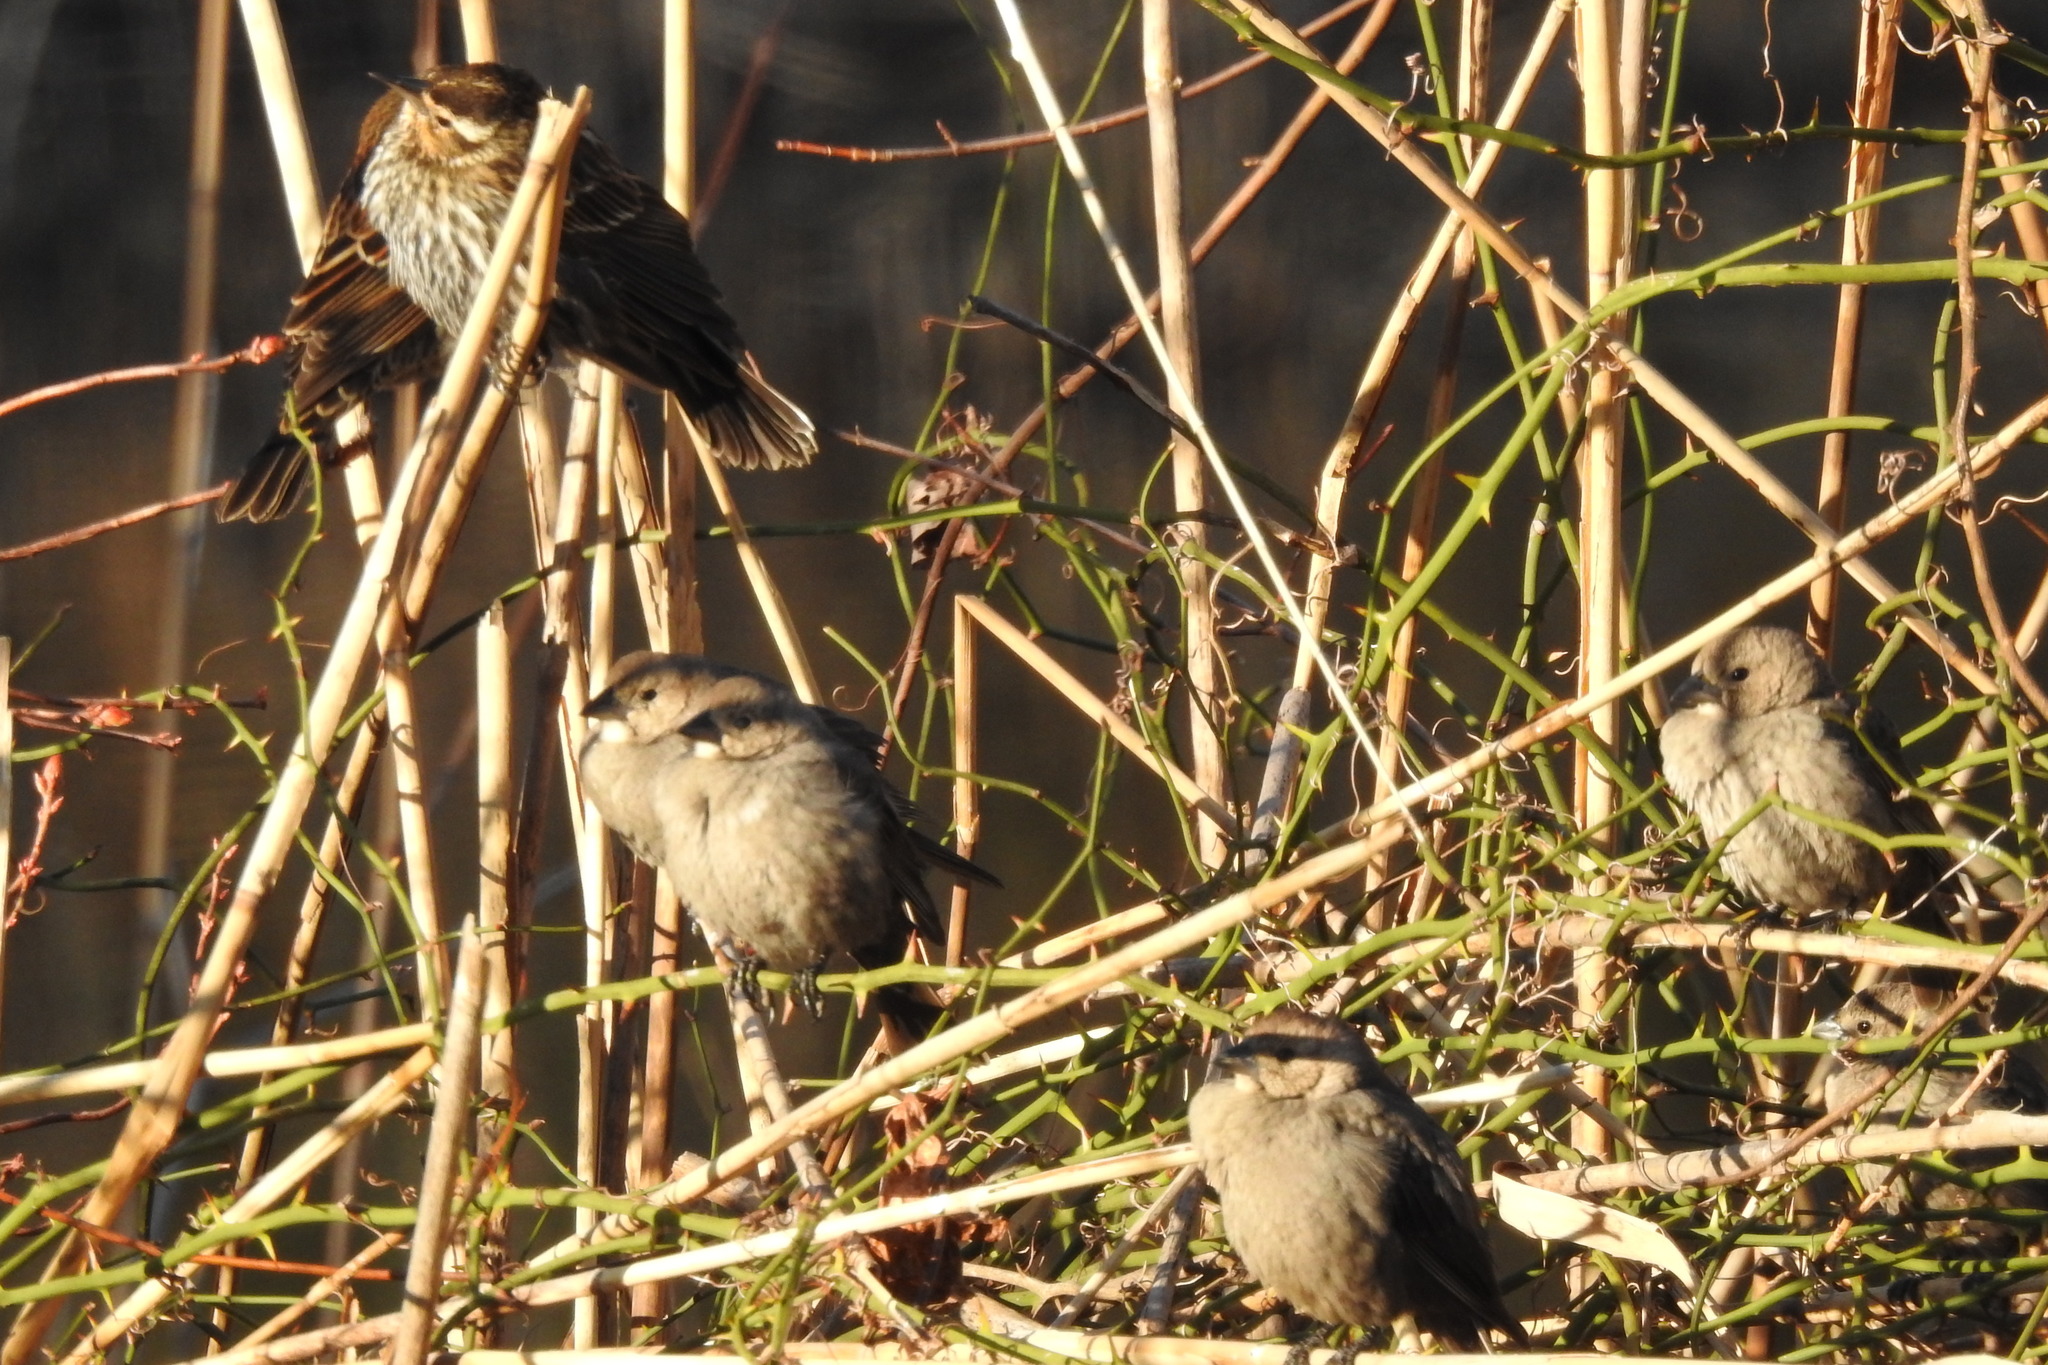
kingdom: Animalia
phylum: Chordata
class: Aves
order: Passeriformes
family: Icteridae
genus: Molothrus
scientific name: Molothrus ater
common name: Brown-headed cowbird
